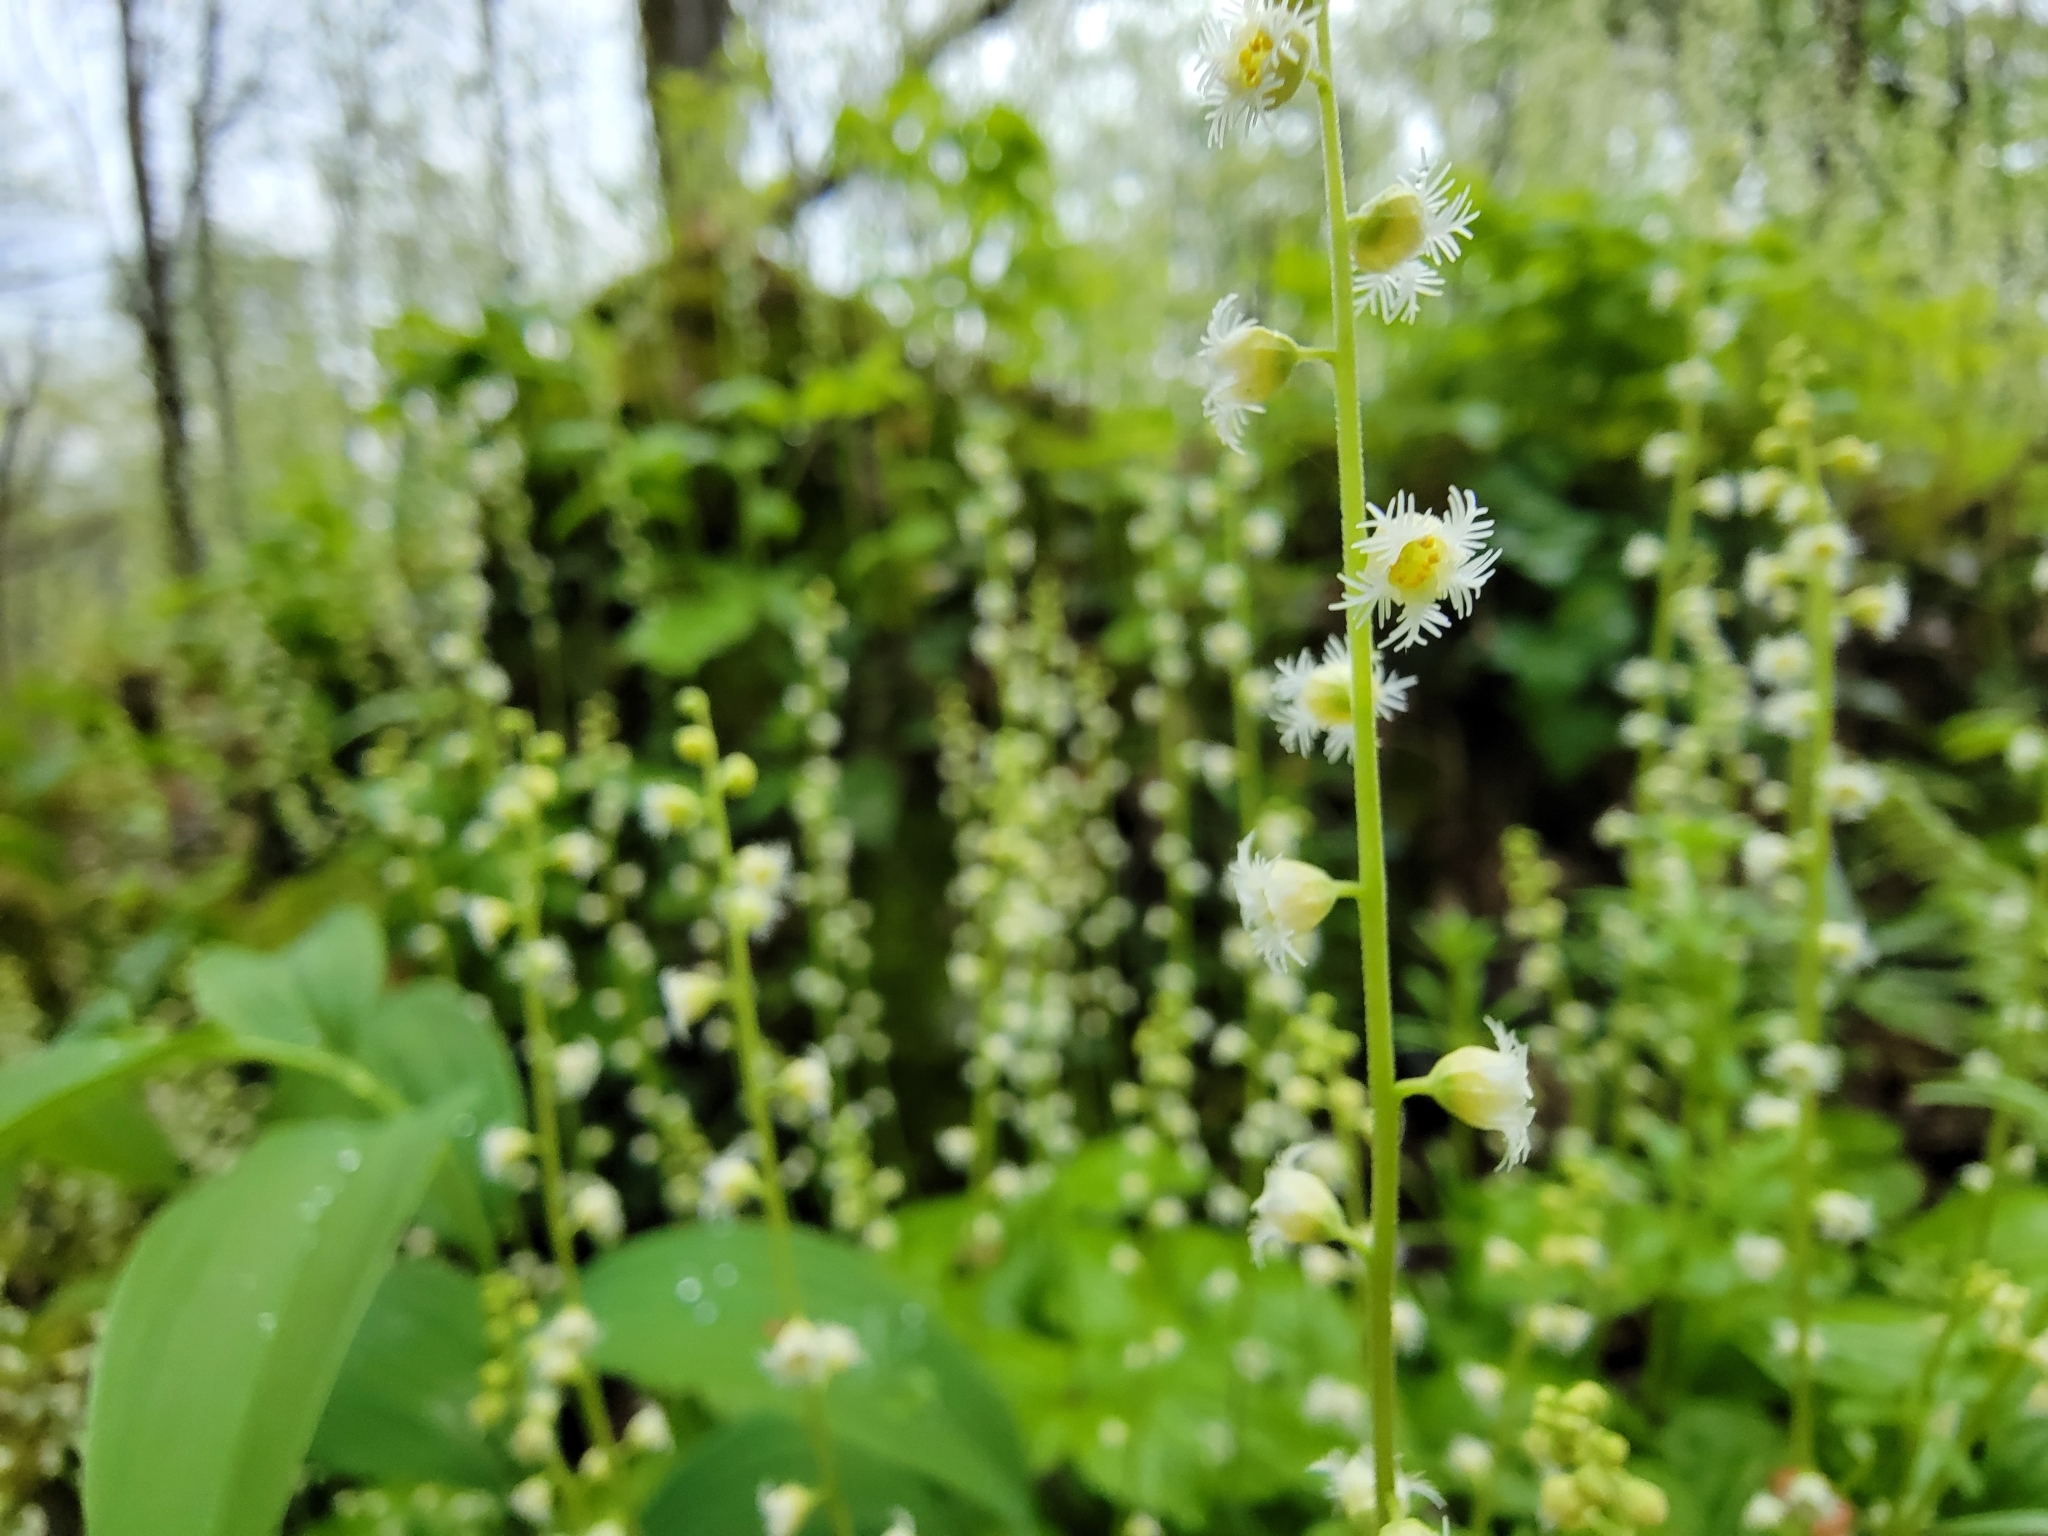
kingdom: Plantae
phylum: Tracheophyta
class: Magnoliopsida
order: Saxifragales
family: Saxifragaceae
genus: Mitella
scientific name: Mitella diphylla
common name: Coolwort
